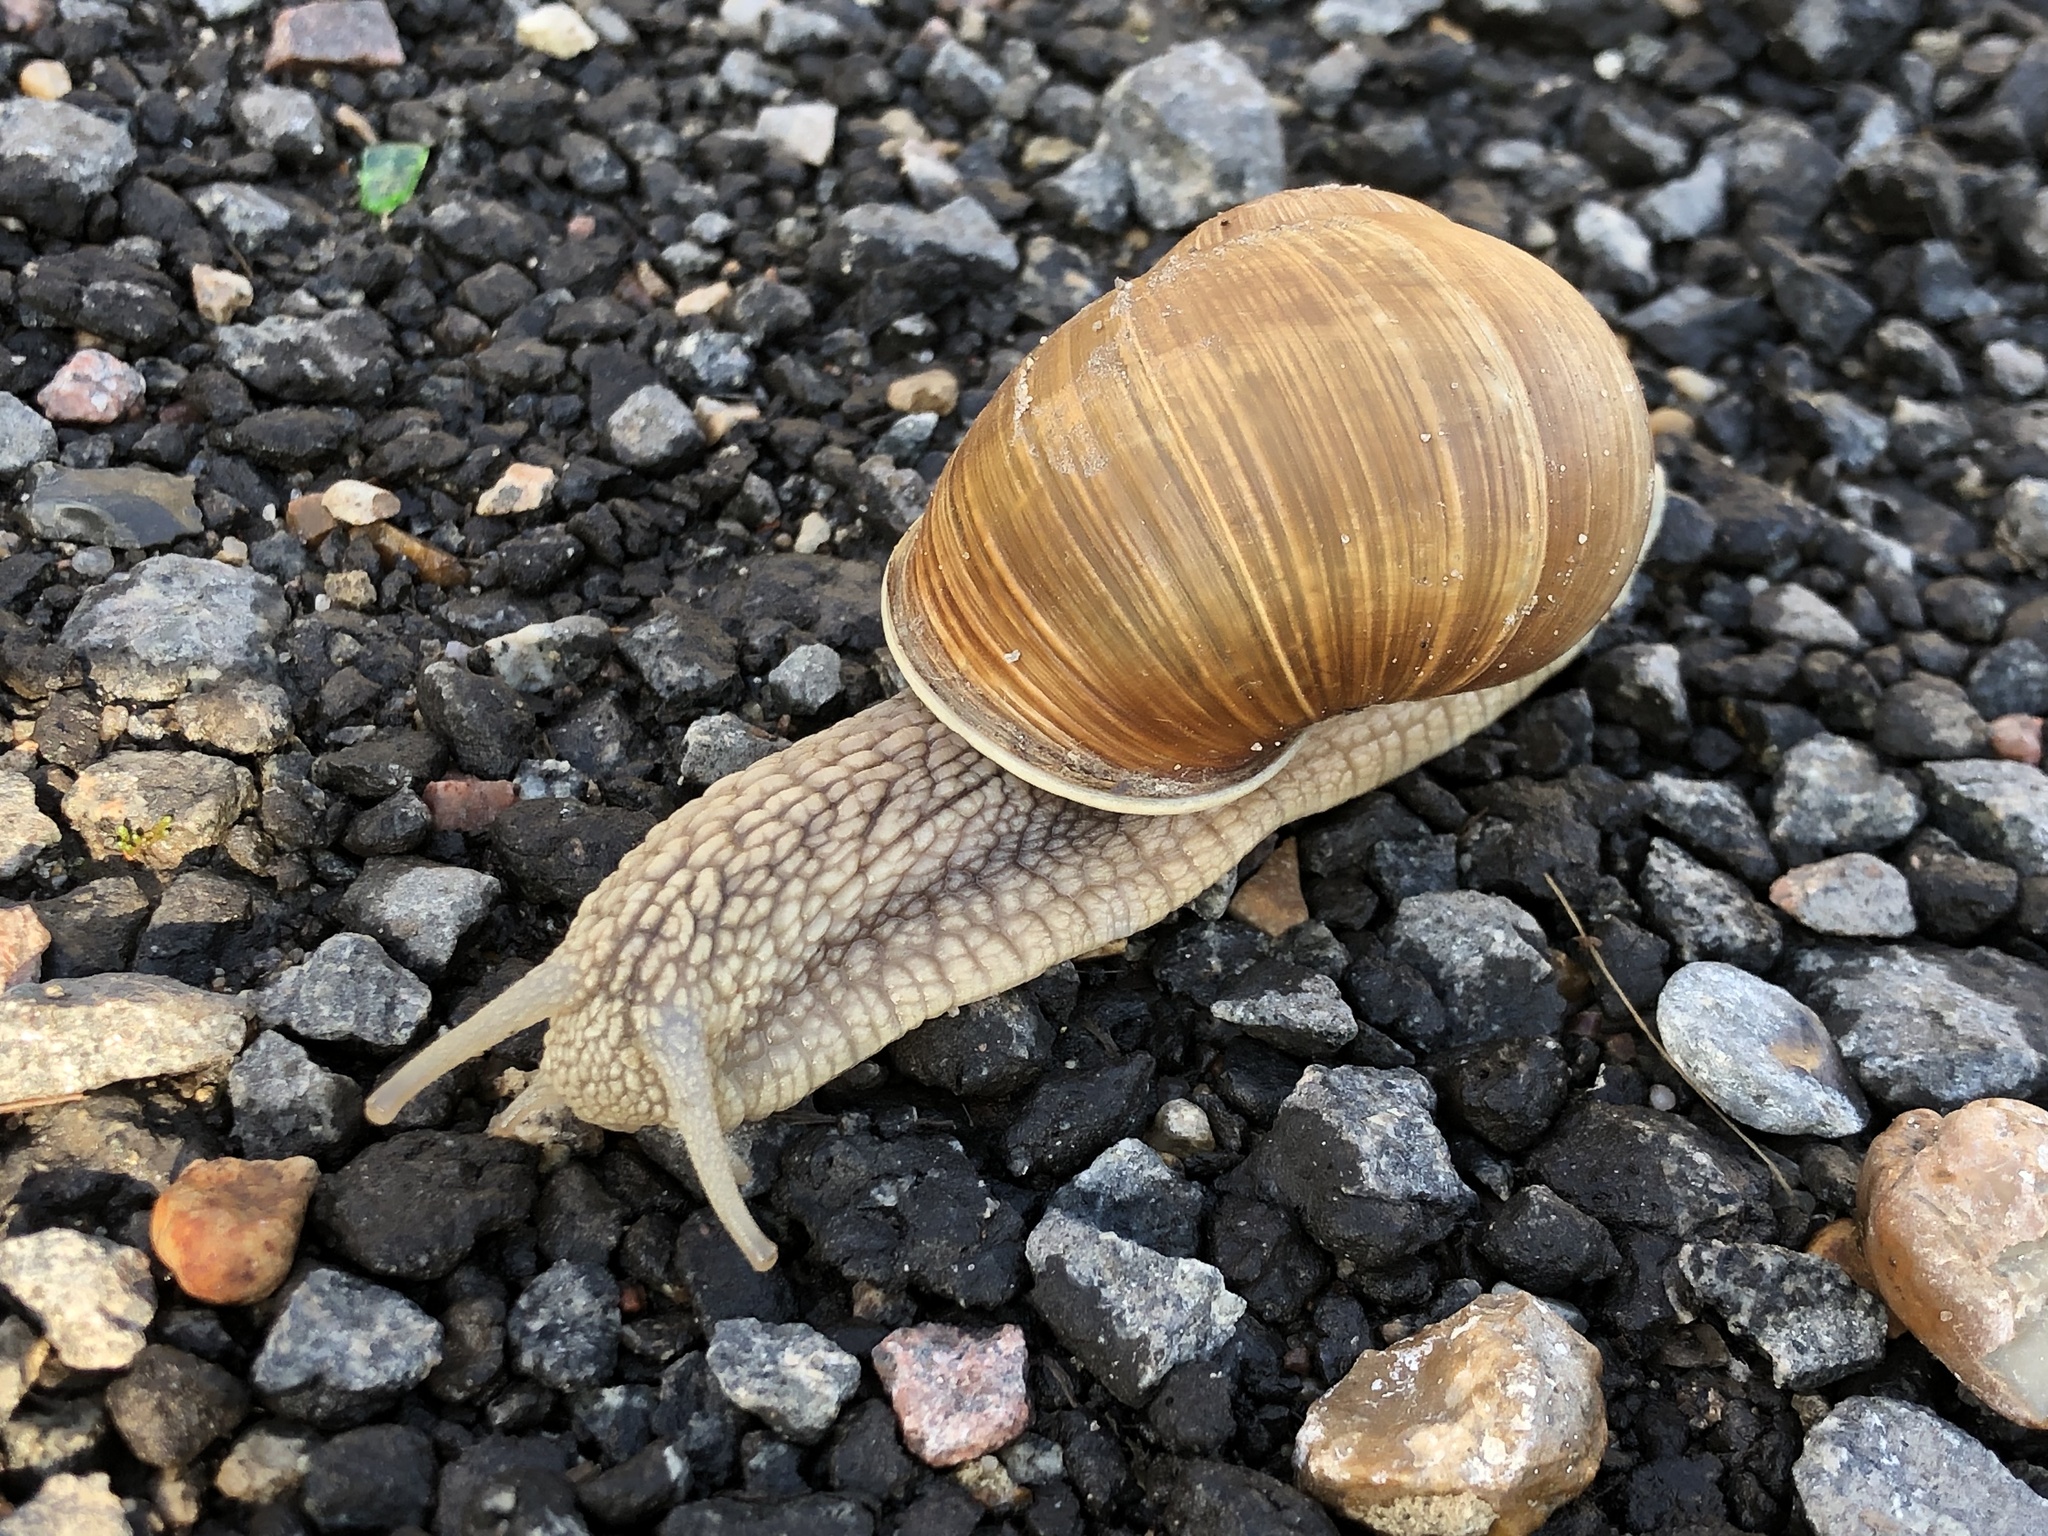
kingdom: Animalia
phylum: Mollusca
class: Gastropoda
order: Stylommatophora
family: Helicidae
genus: Helix
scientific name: Helix pomatia
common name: Roman snail
